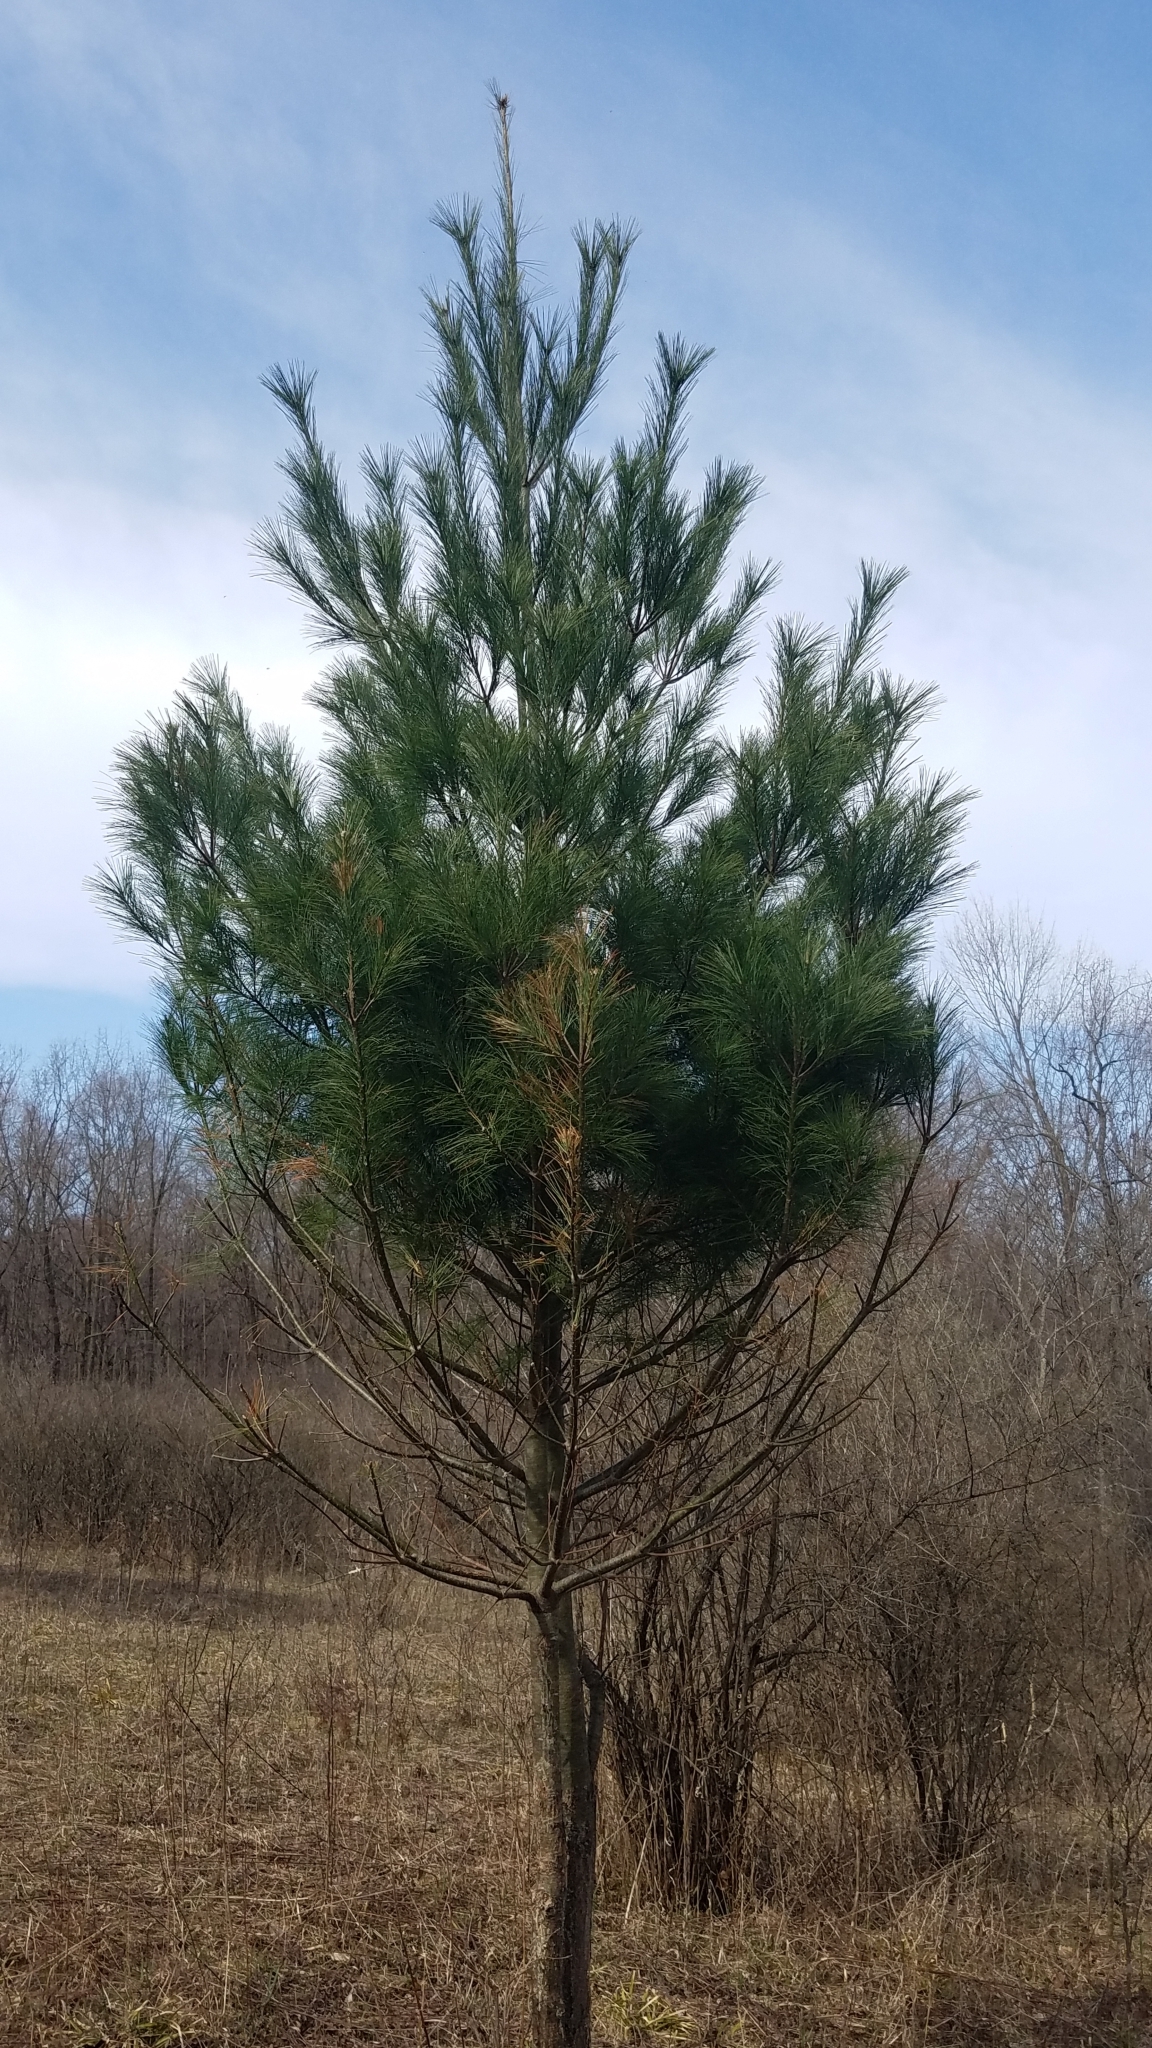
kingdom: Plantae
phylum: Tracheophyta
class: Pinopsida
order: Pinales
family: Pinaceae
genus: Pinus
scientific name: Pinus strobus
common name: Weymouth pine
